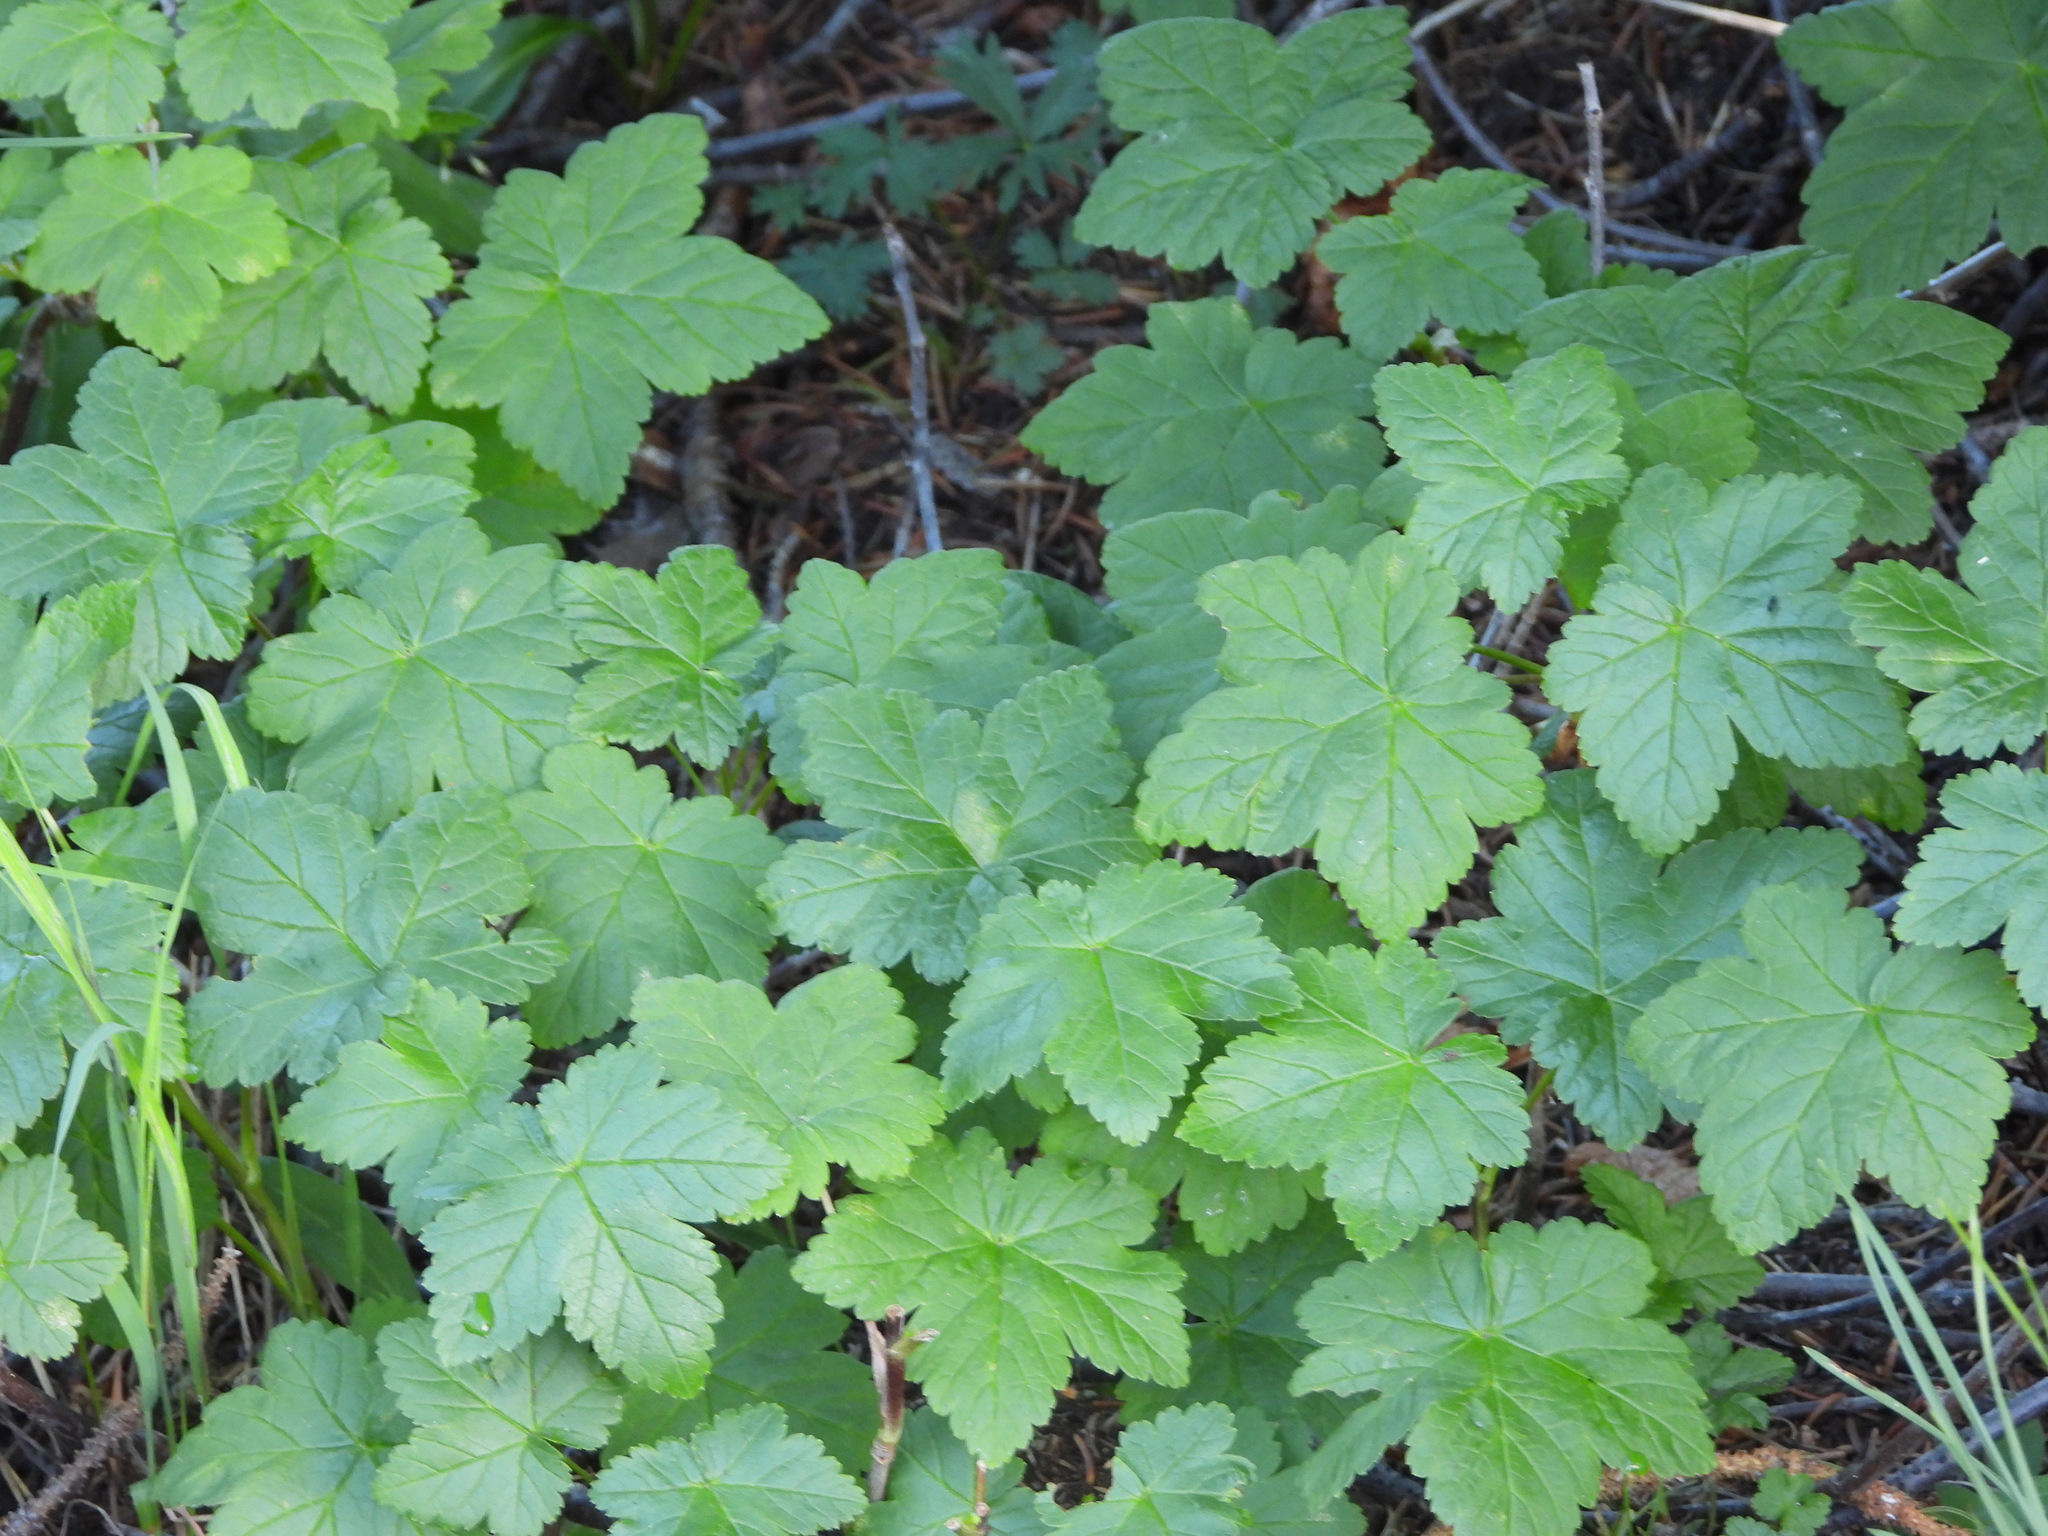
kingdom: Plantae
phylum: Tracheophyta
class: Magnoliopsida
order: Saxifragales
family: Grossulariaceae
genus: Ribes
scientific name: Ribes wolfii
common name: Rothrock currant
